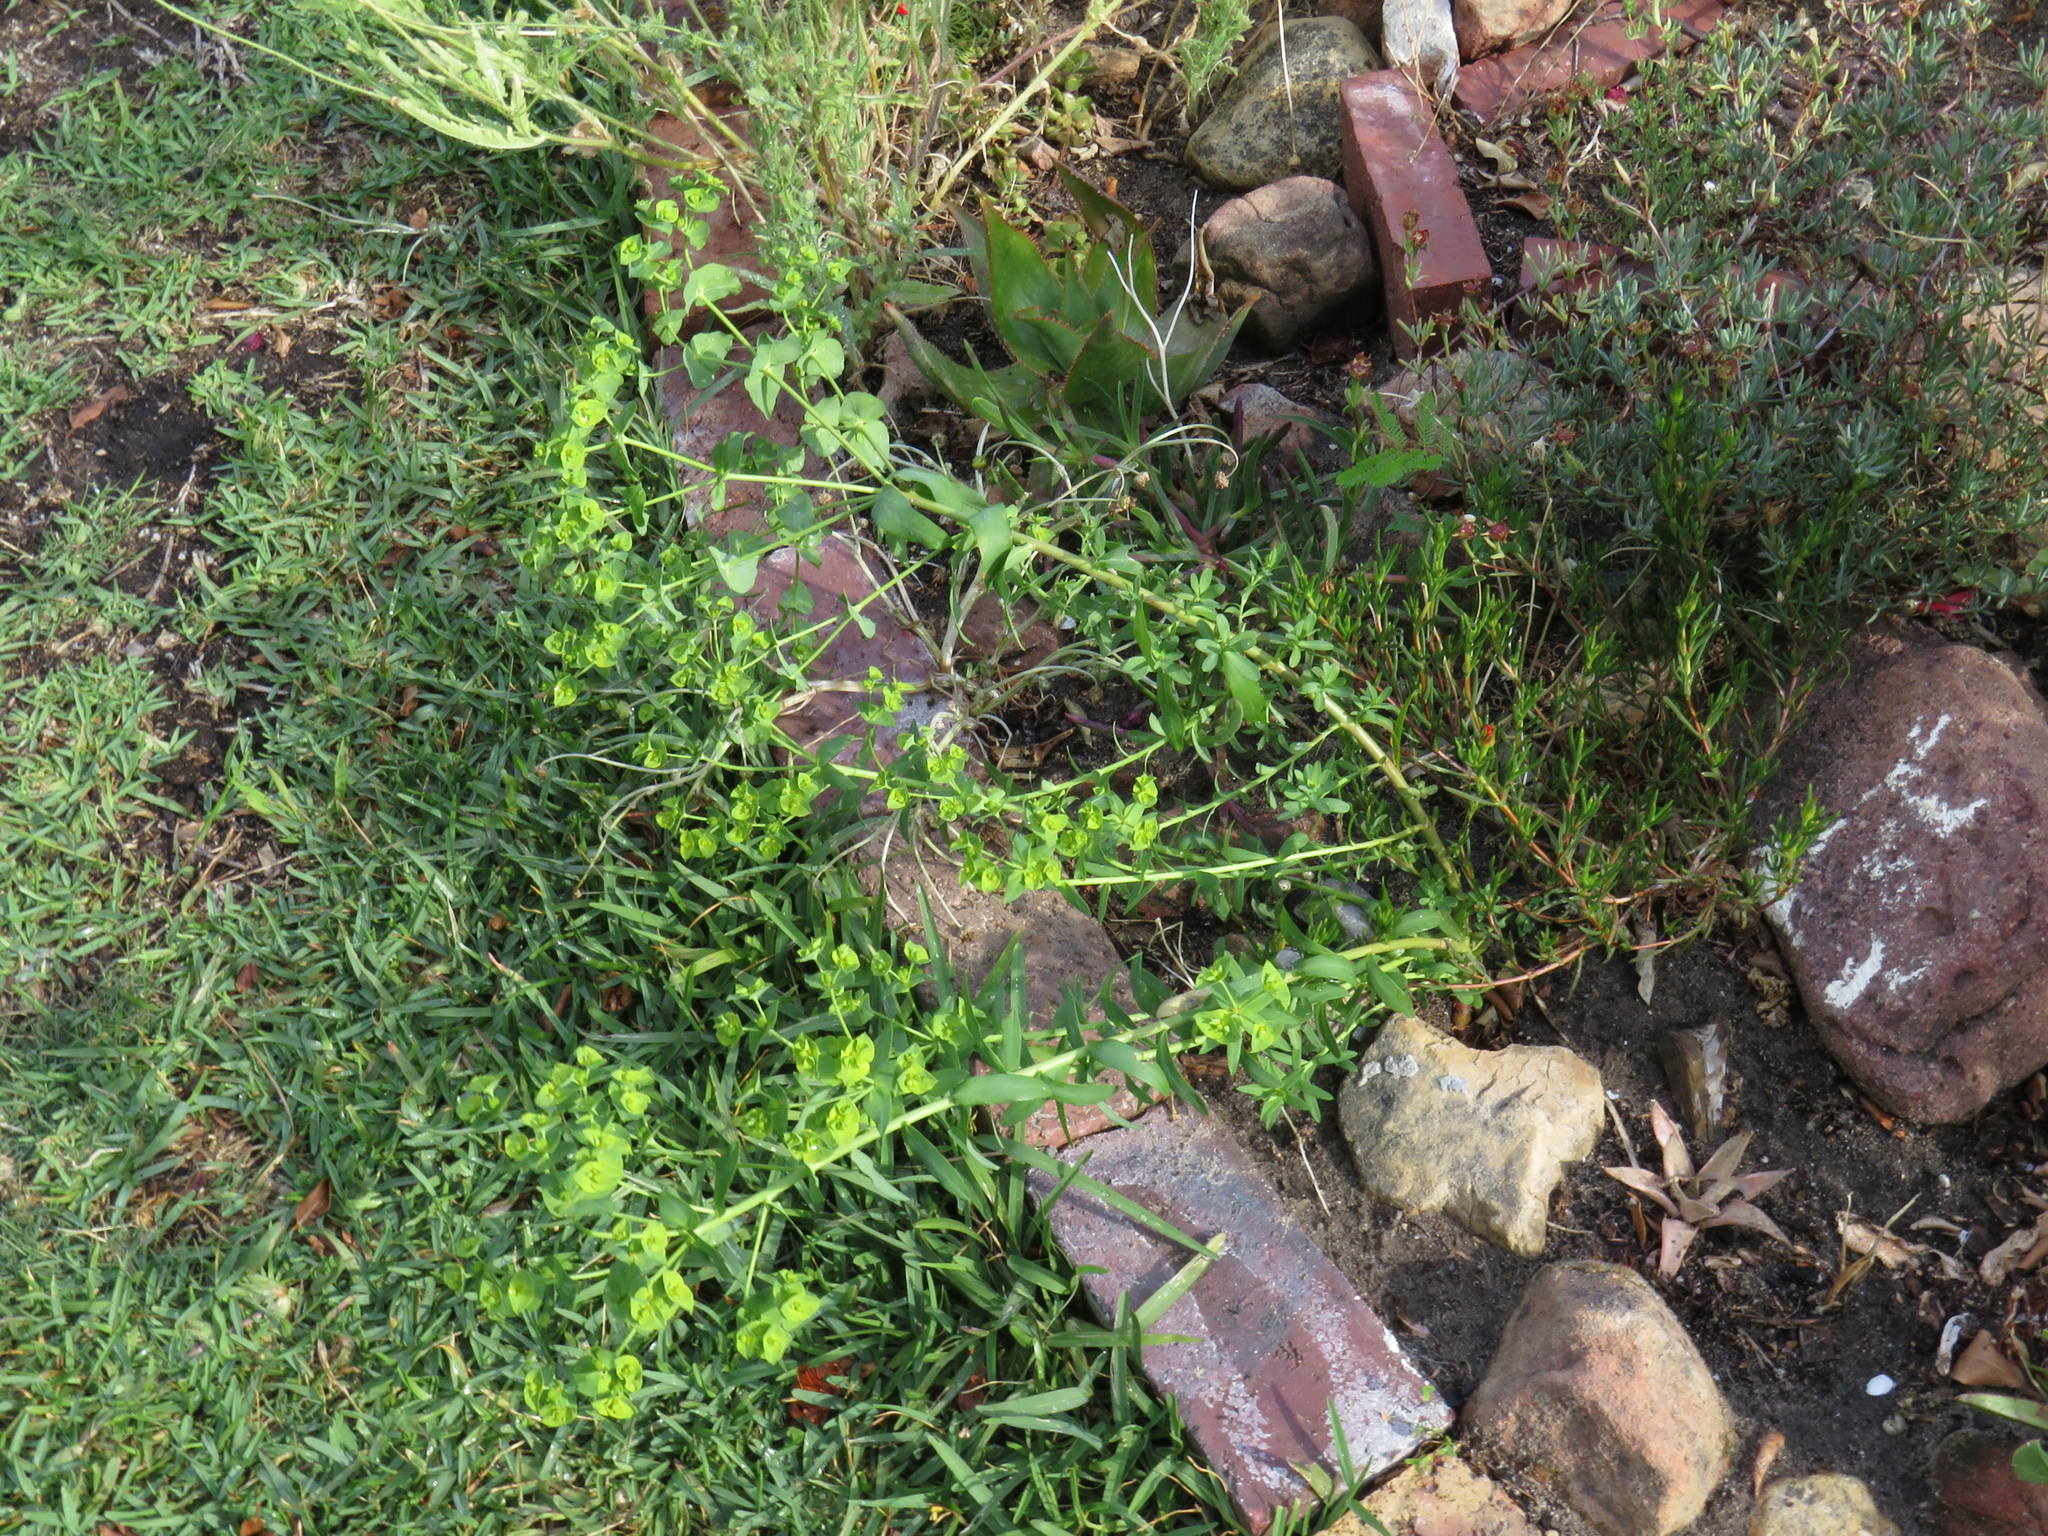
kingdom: Plantae
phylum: Tracheophyta
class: Magnoliopsida
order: Malpighiales
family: Euphorbiaceae
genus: Euphorbia
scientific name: Euphorbia terracina
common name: Geraldton carnation weed
